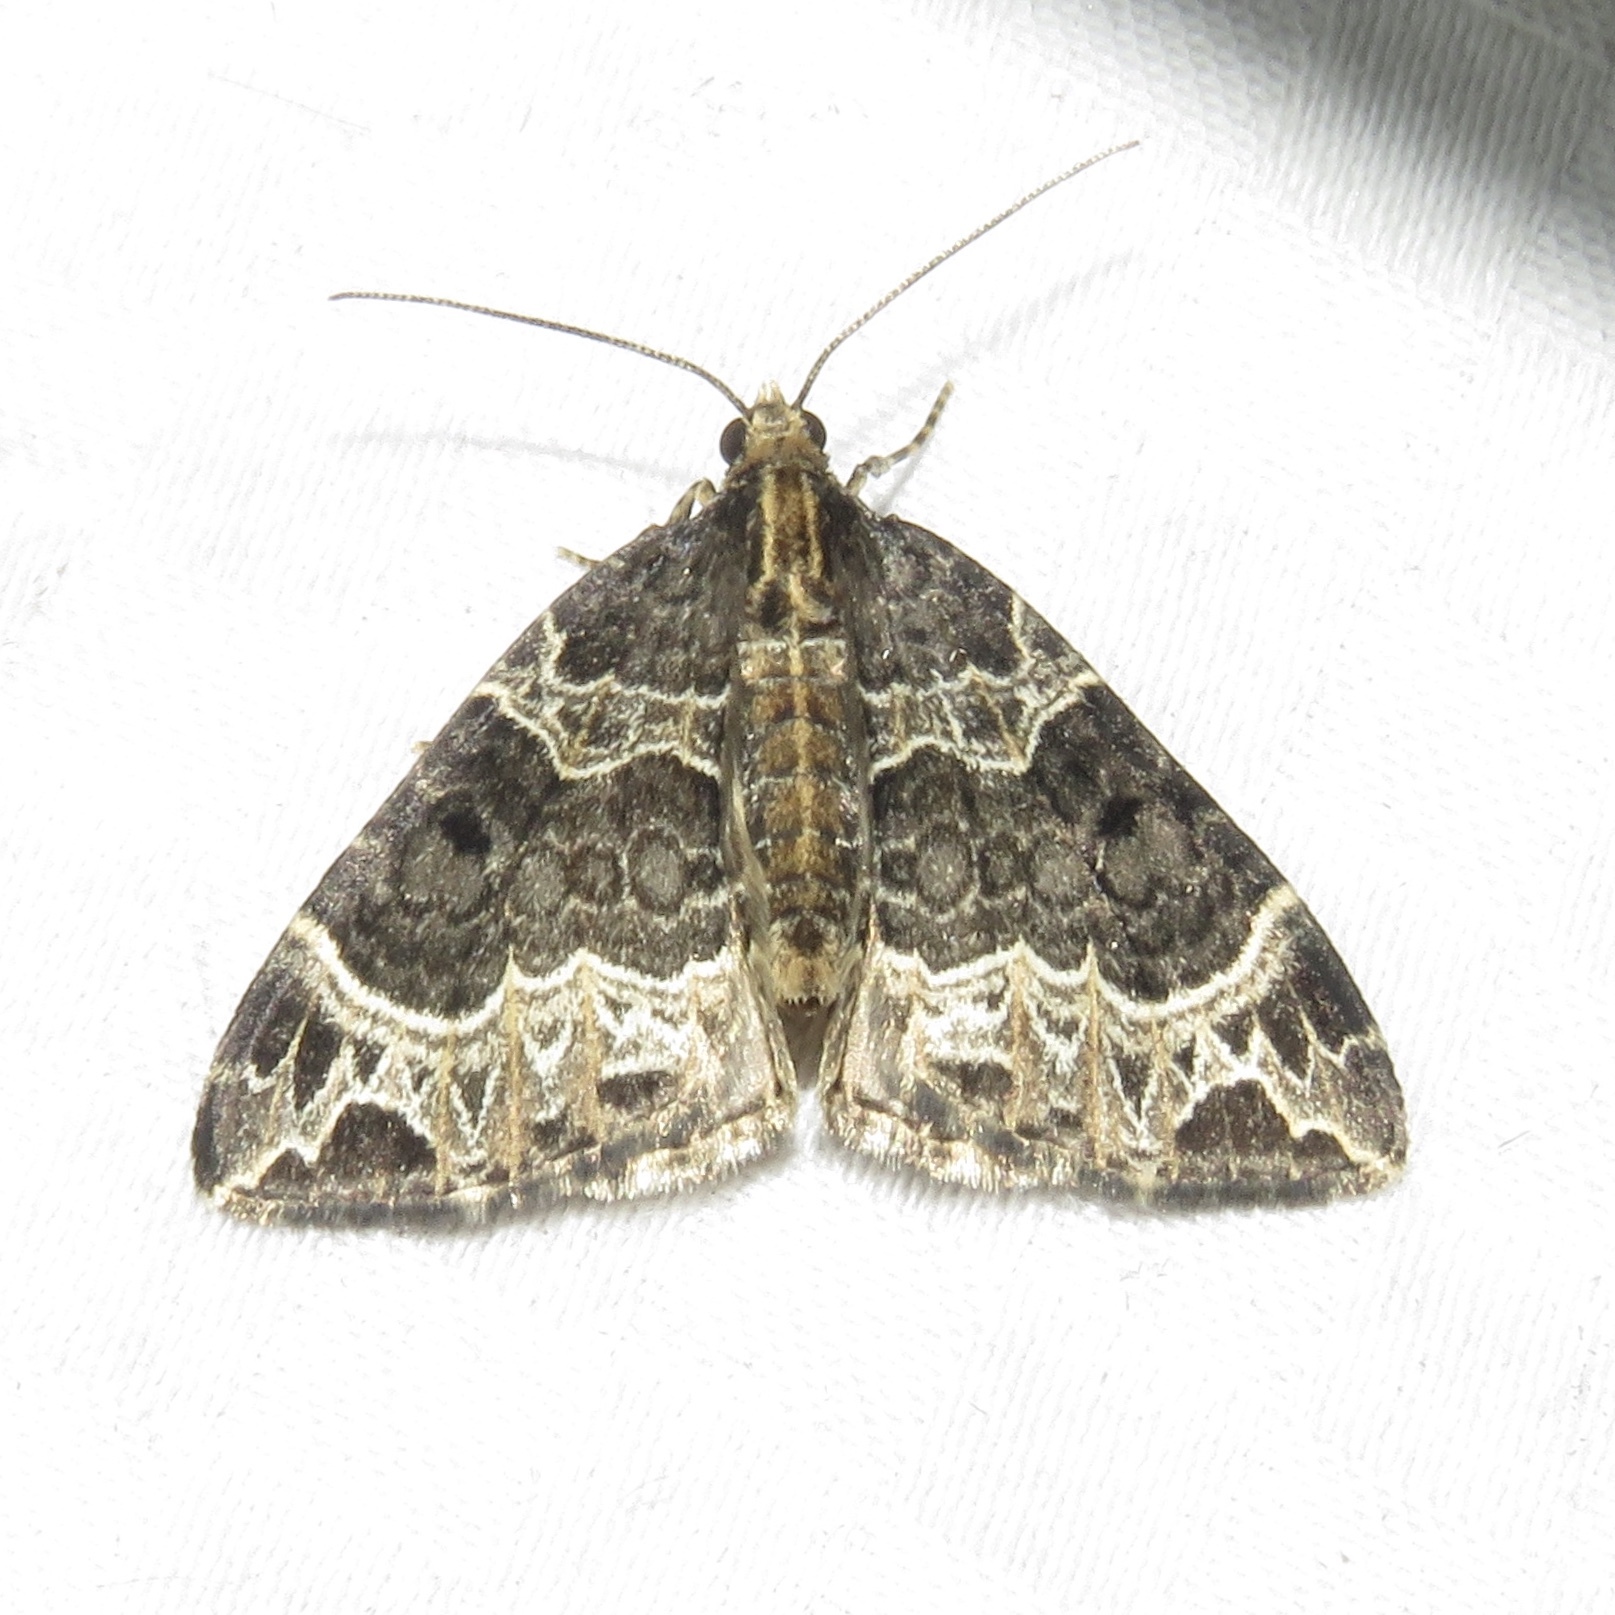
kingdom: Animalia
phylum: Arthropoda
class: Insecta
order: Lepidoptera
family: Geometridae
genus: Ecliptopera
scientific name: Ecliptopera silaceata
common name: Small phoenix
